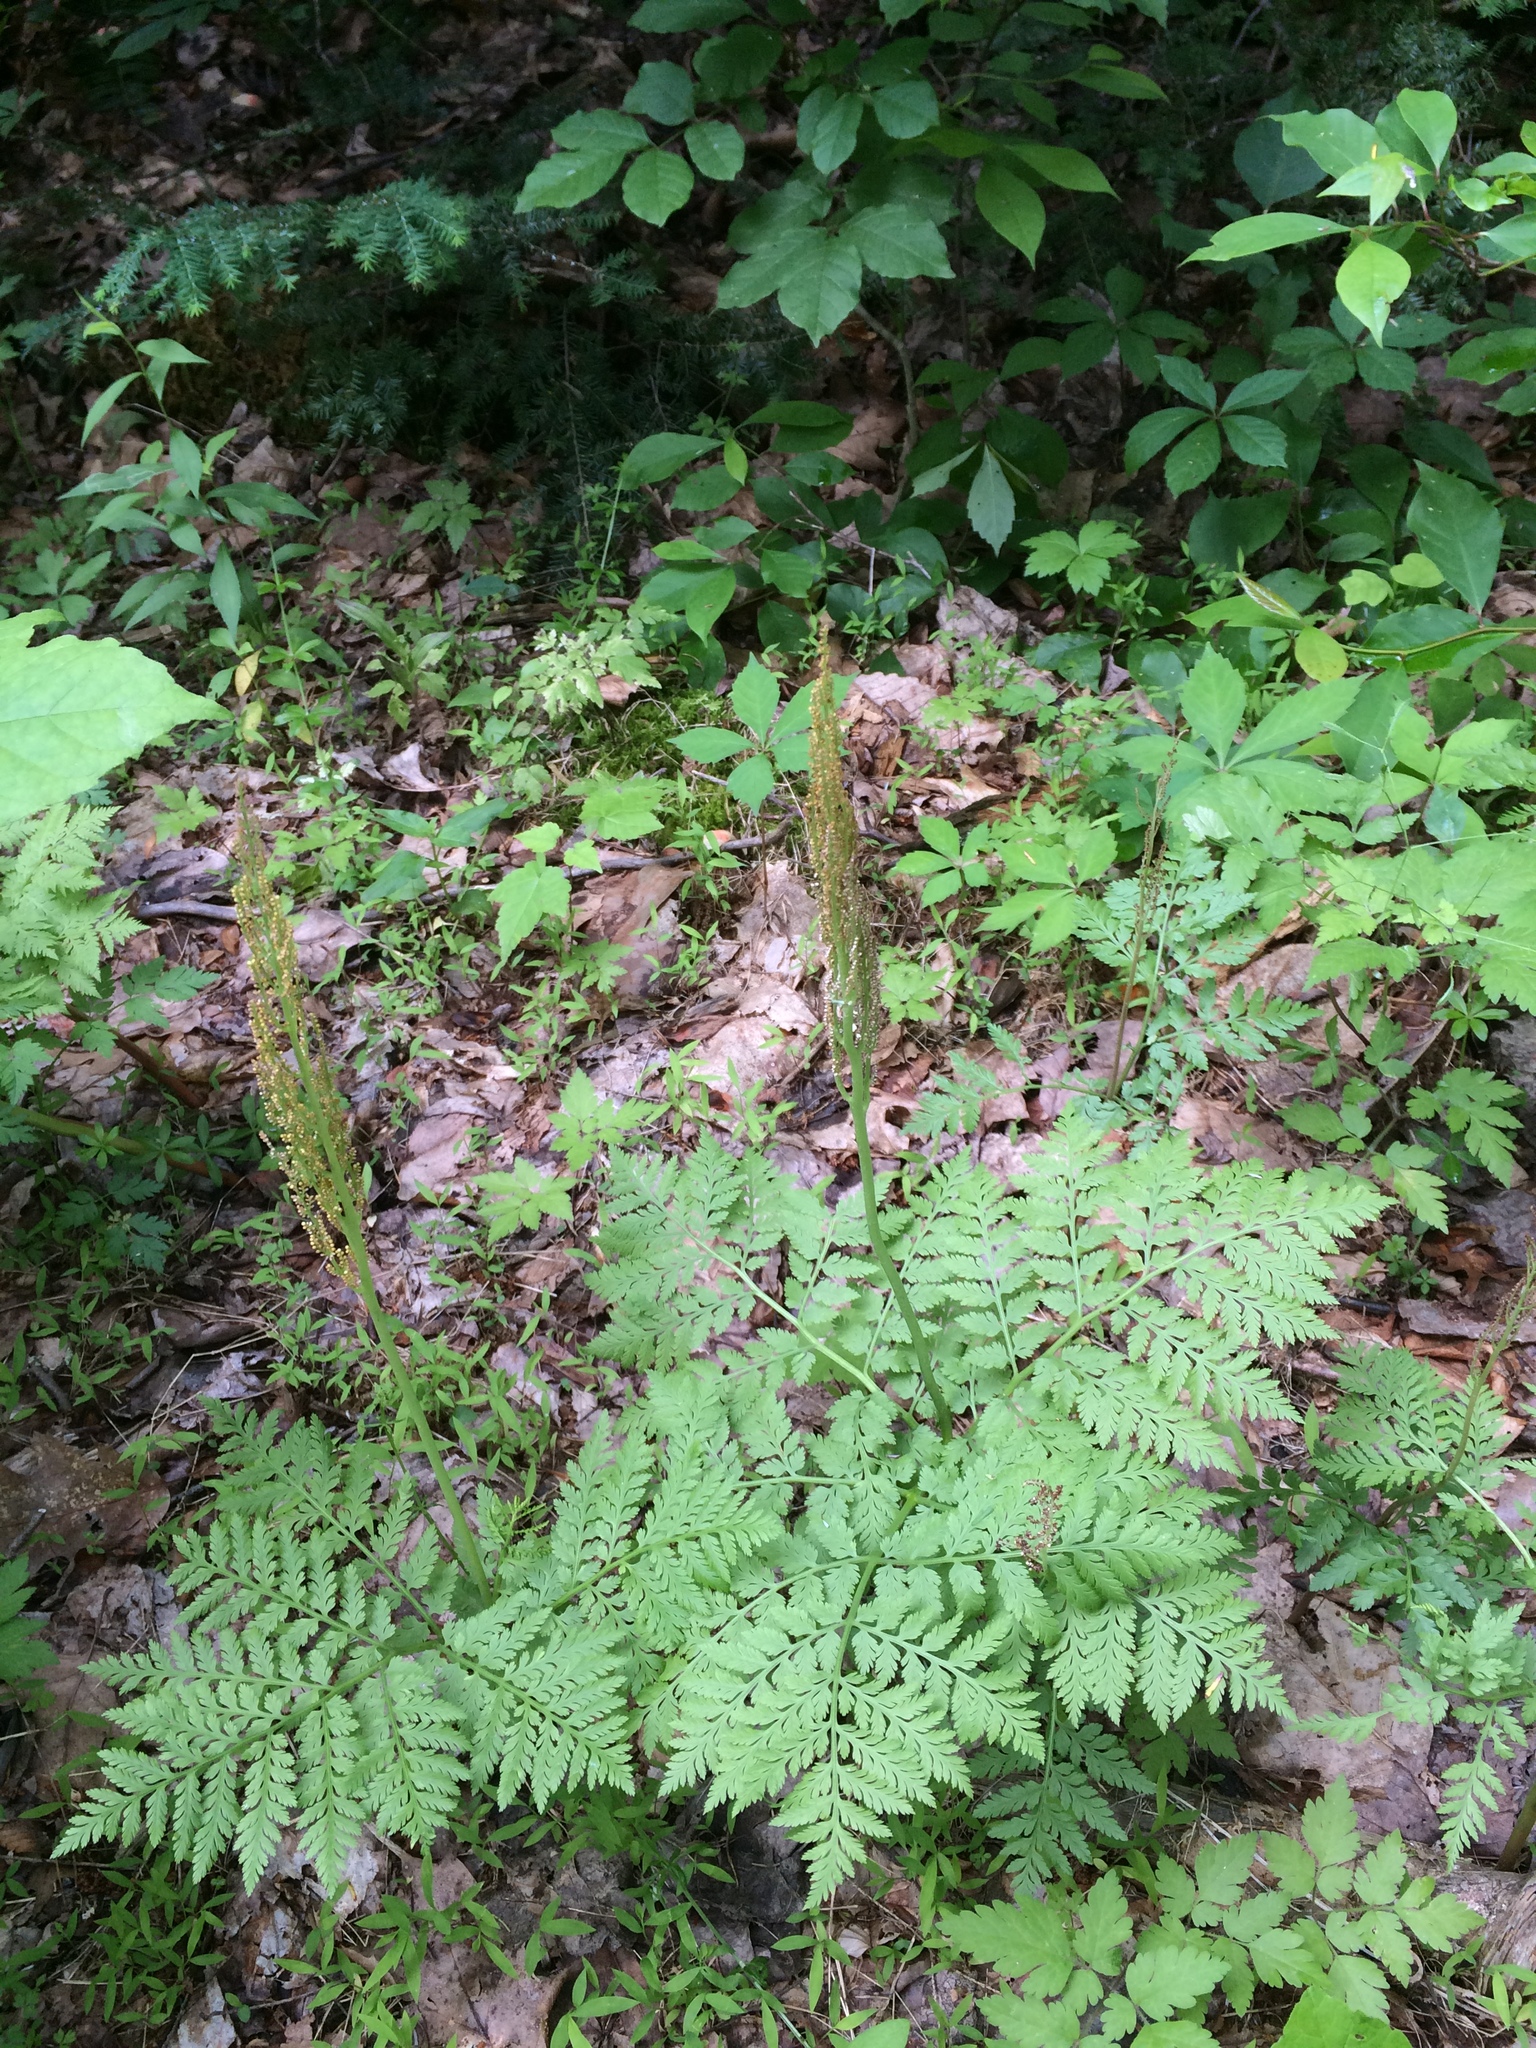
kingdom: Plantae
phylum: Tracheophyta
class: Polypodiopsida
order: Ophioglossales
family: Ophioglossaceae
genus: Botrypus
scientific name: Botrypus virginianus
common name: Common grapefern
